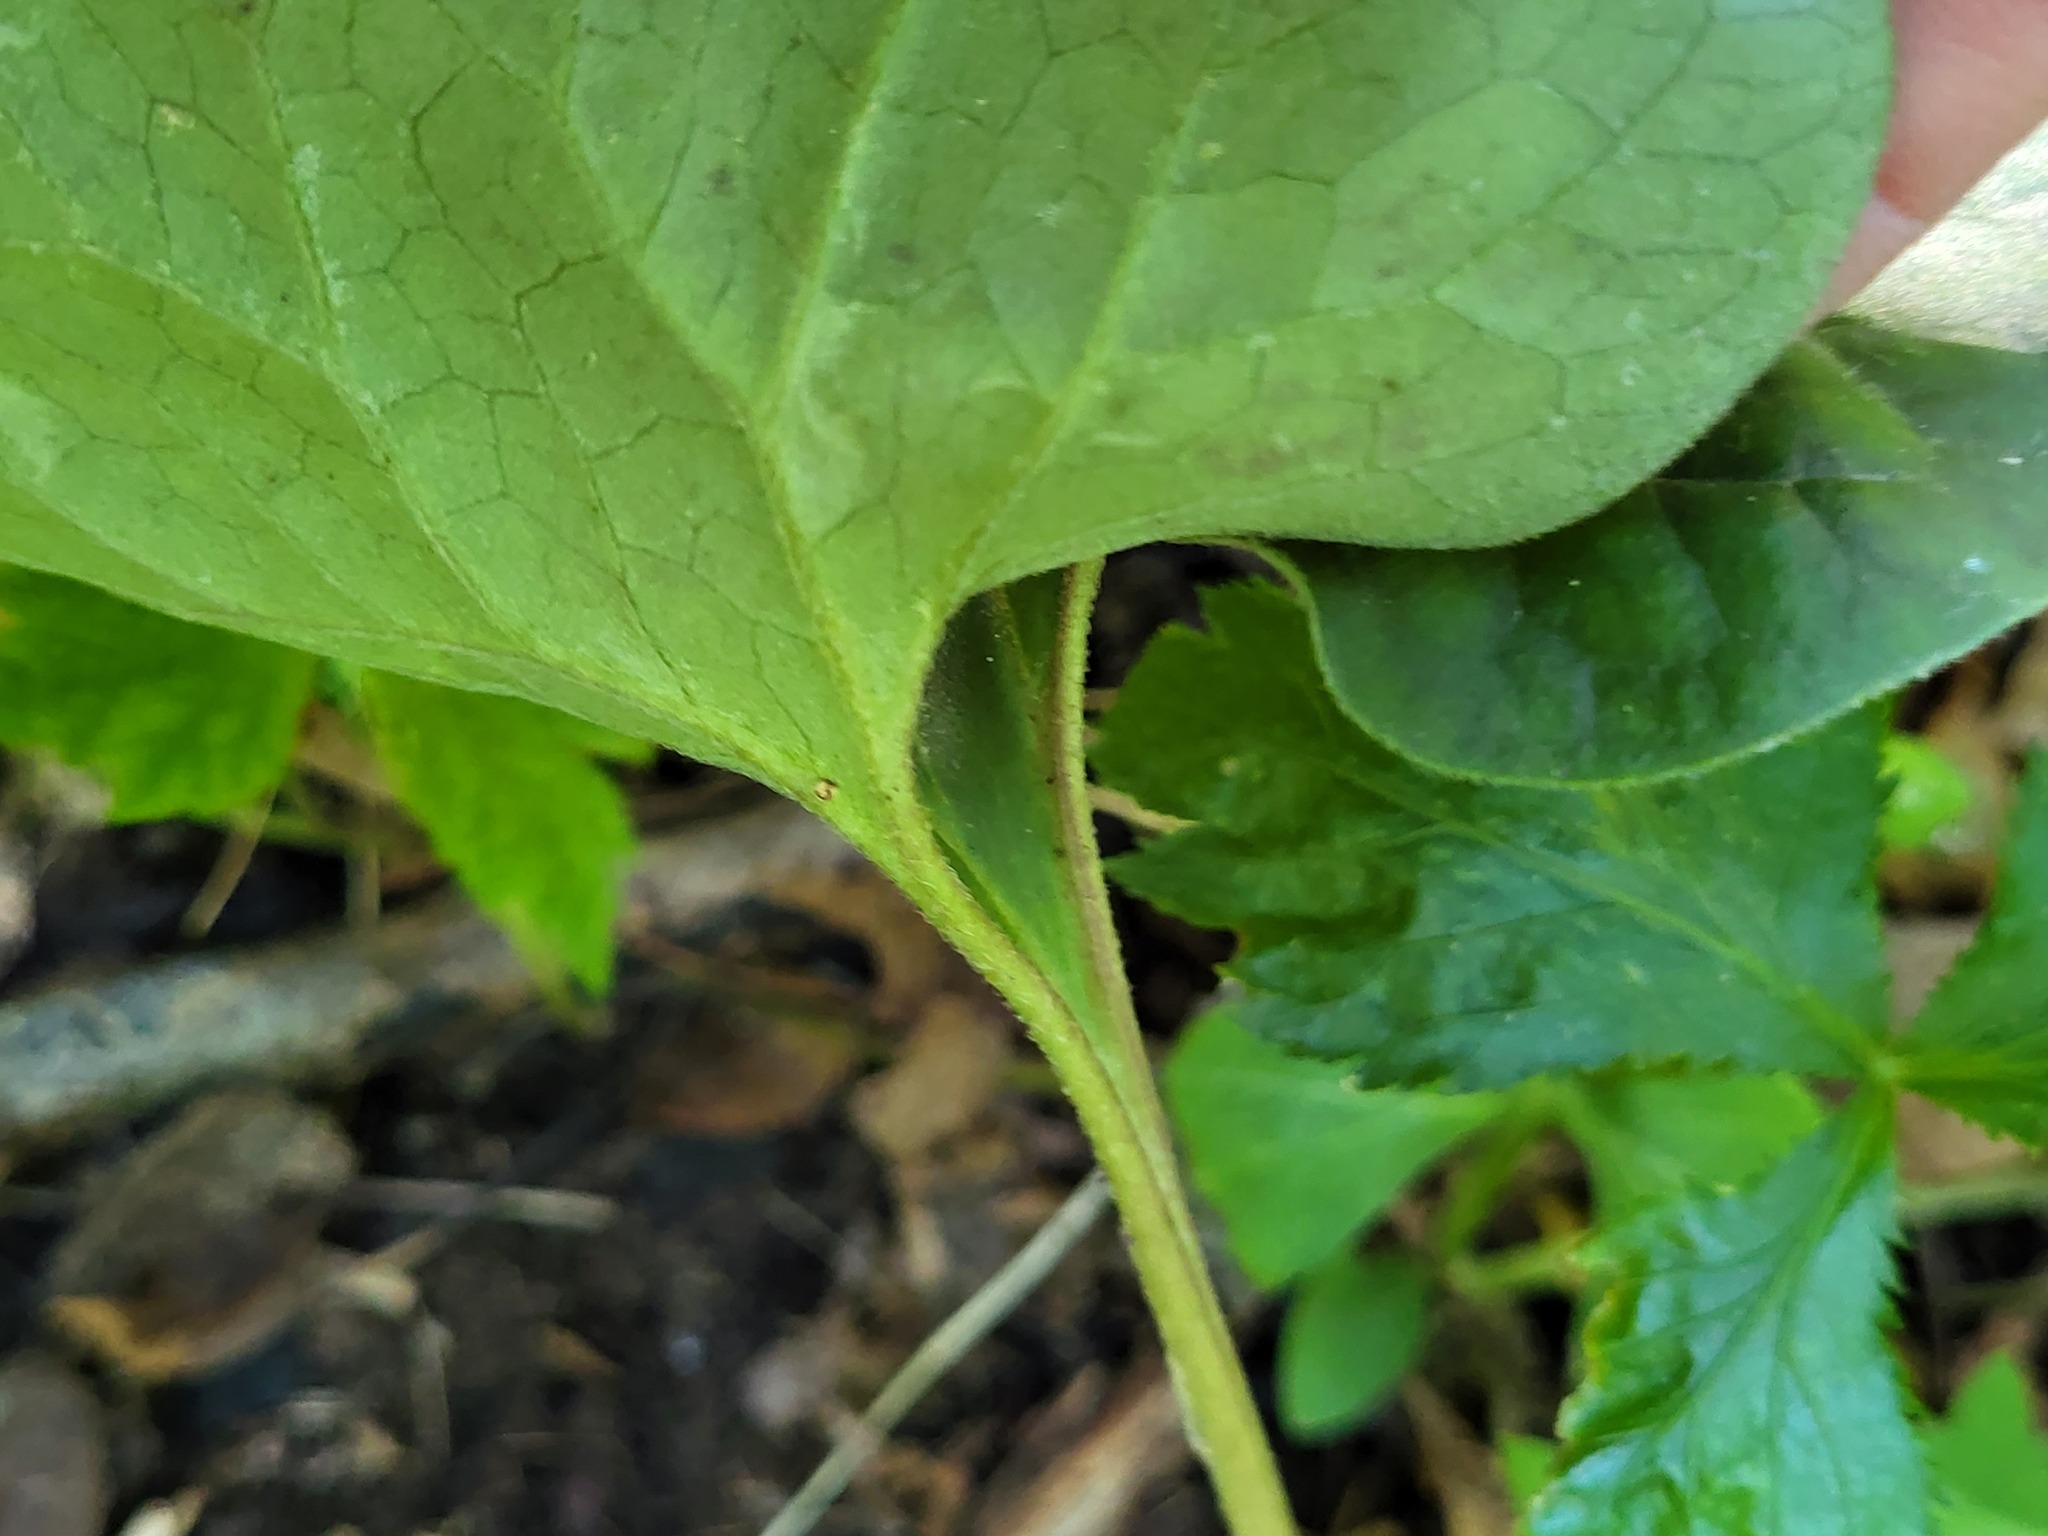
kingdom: Plantae
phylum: Tracheophyta
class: Magnoliopsida
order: Piperales
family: Aristolochiaceae
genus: Asarum
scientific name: Asarum canadense
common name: Wild ginger
